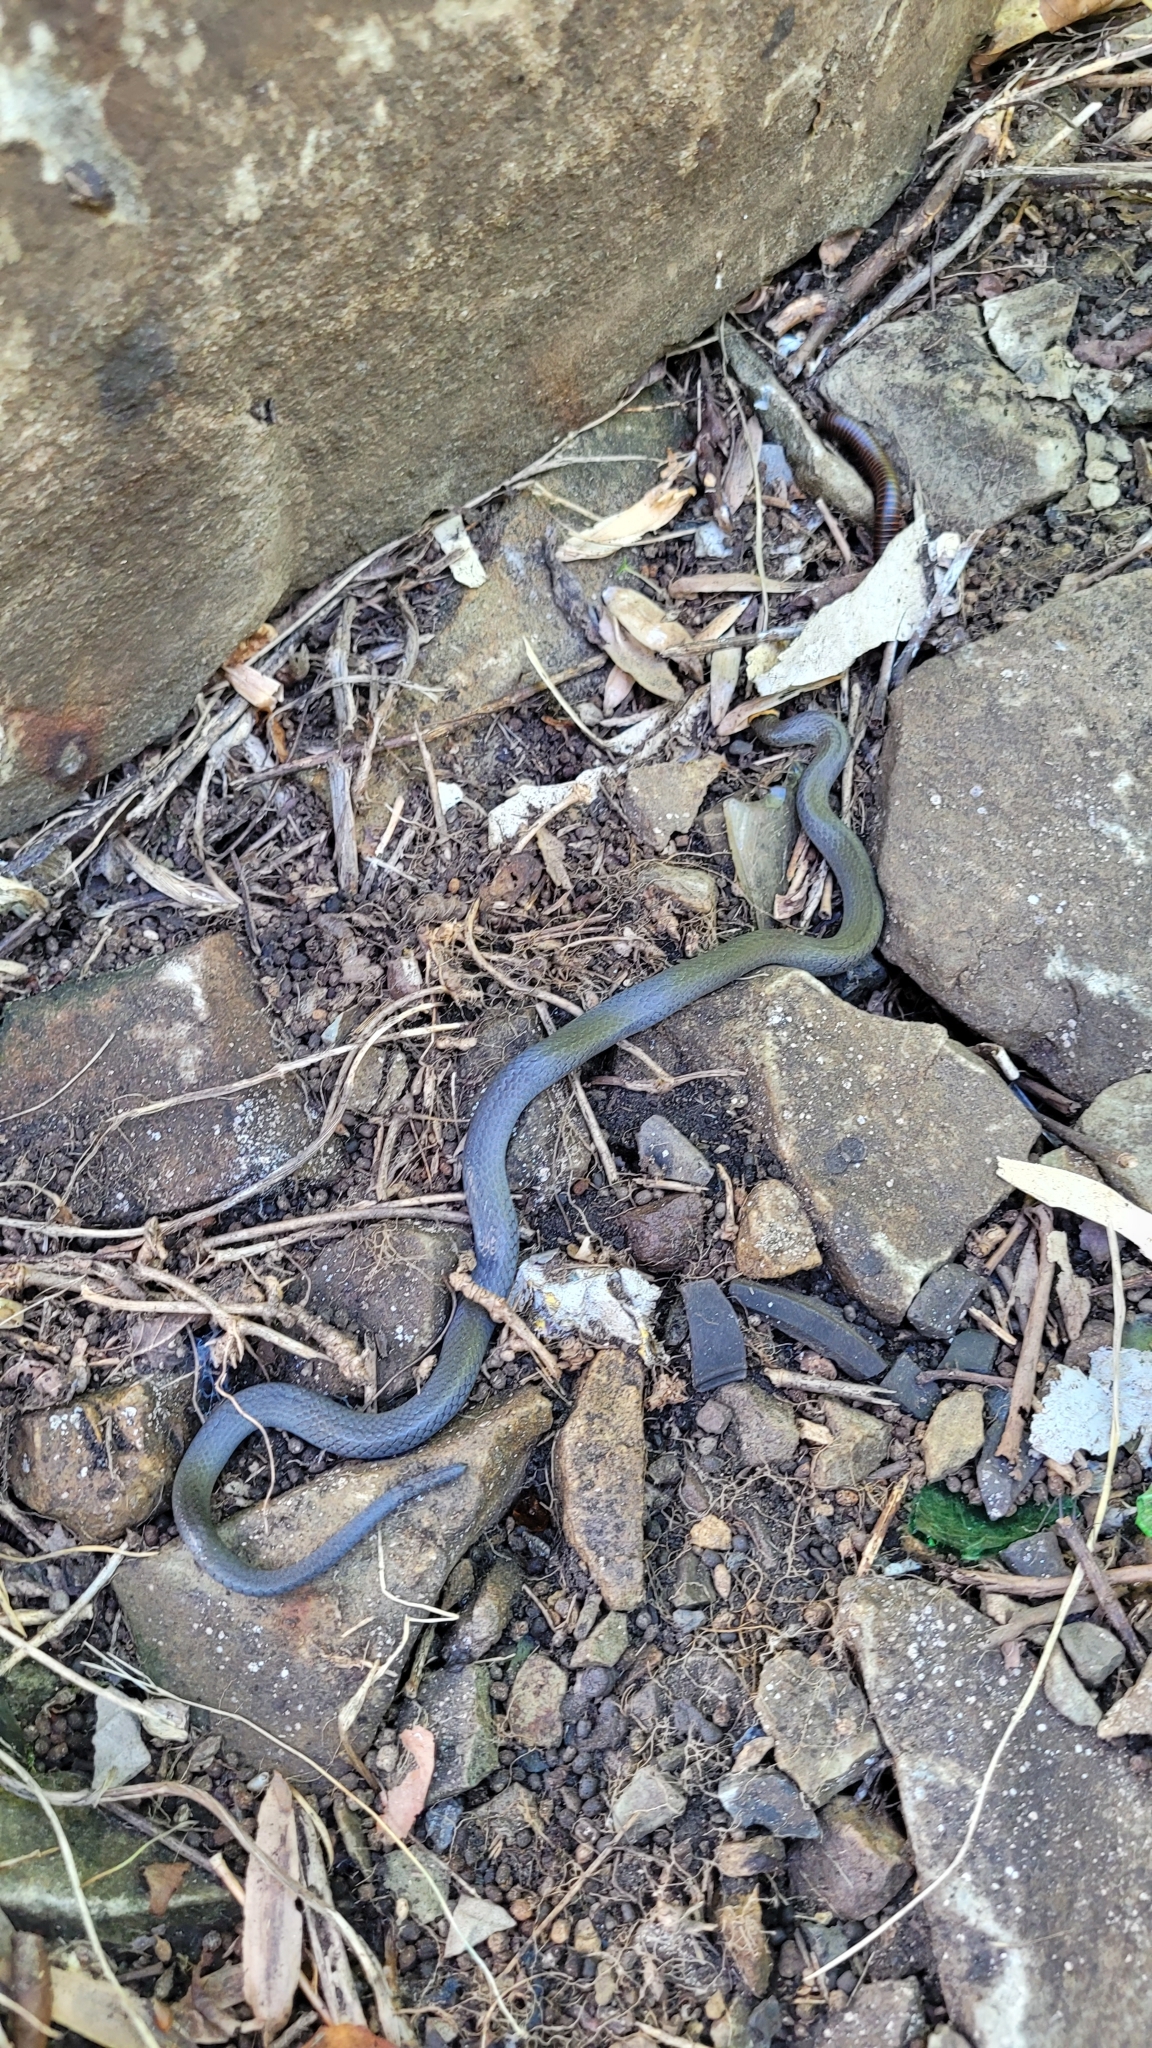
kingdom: Animalia
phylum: Chordata
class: Squamata
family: Colubridae
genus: Diadophis
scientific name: Diadophis punctatus
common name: Ringneck snake
